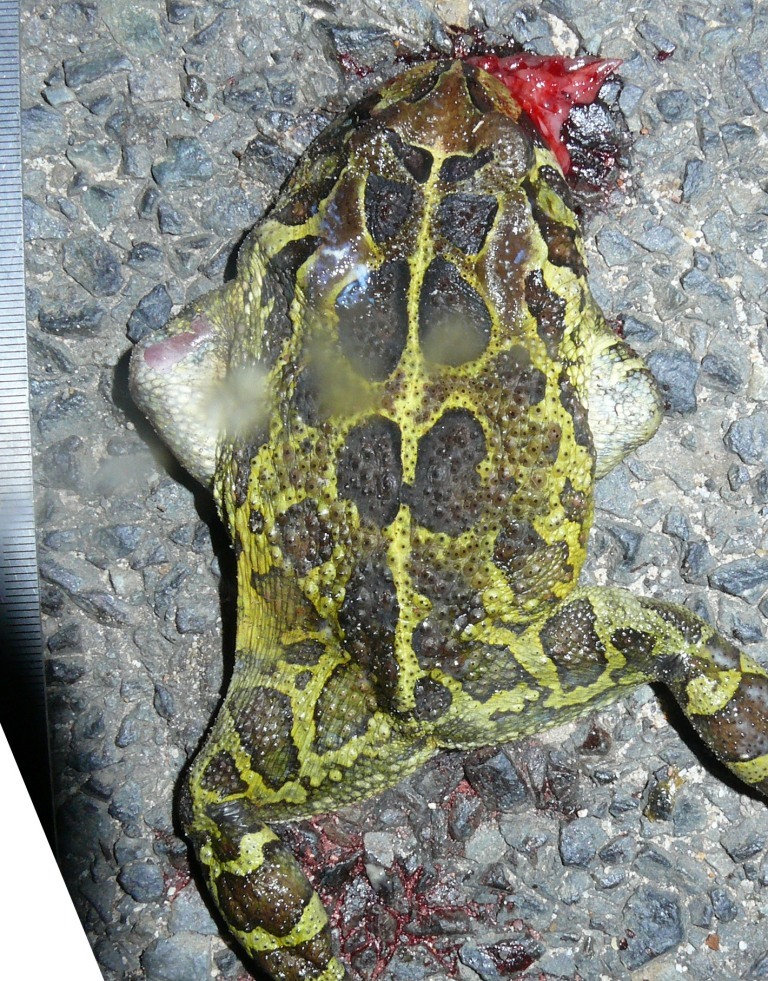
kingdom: Animalia
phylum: Chordata
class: Amphibia
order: Anura
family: Bufonidae
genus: Sclerophrys
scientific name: Sclerophrys pantherina
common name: Panther toad
